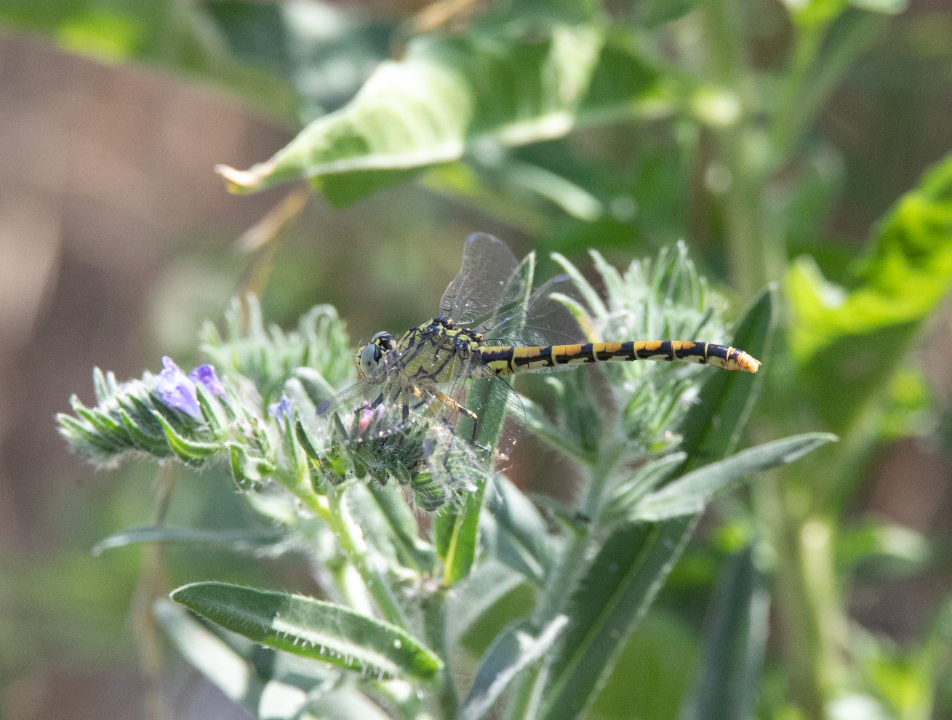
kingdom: Animalia
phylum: Arthropoda
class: Insecta
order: Odonata
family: Gomphidae
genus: Onychogomphus
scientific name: Onychogomphus forcipatus
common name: Small pincertail
